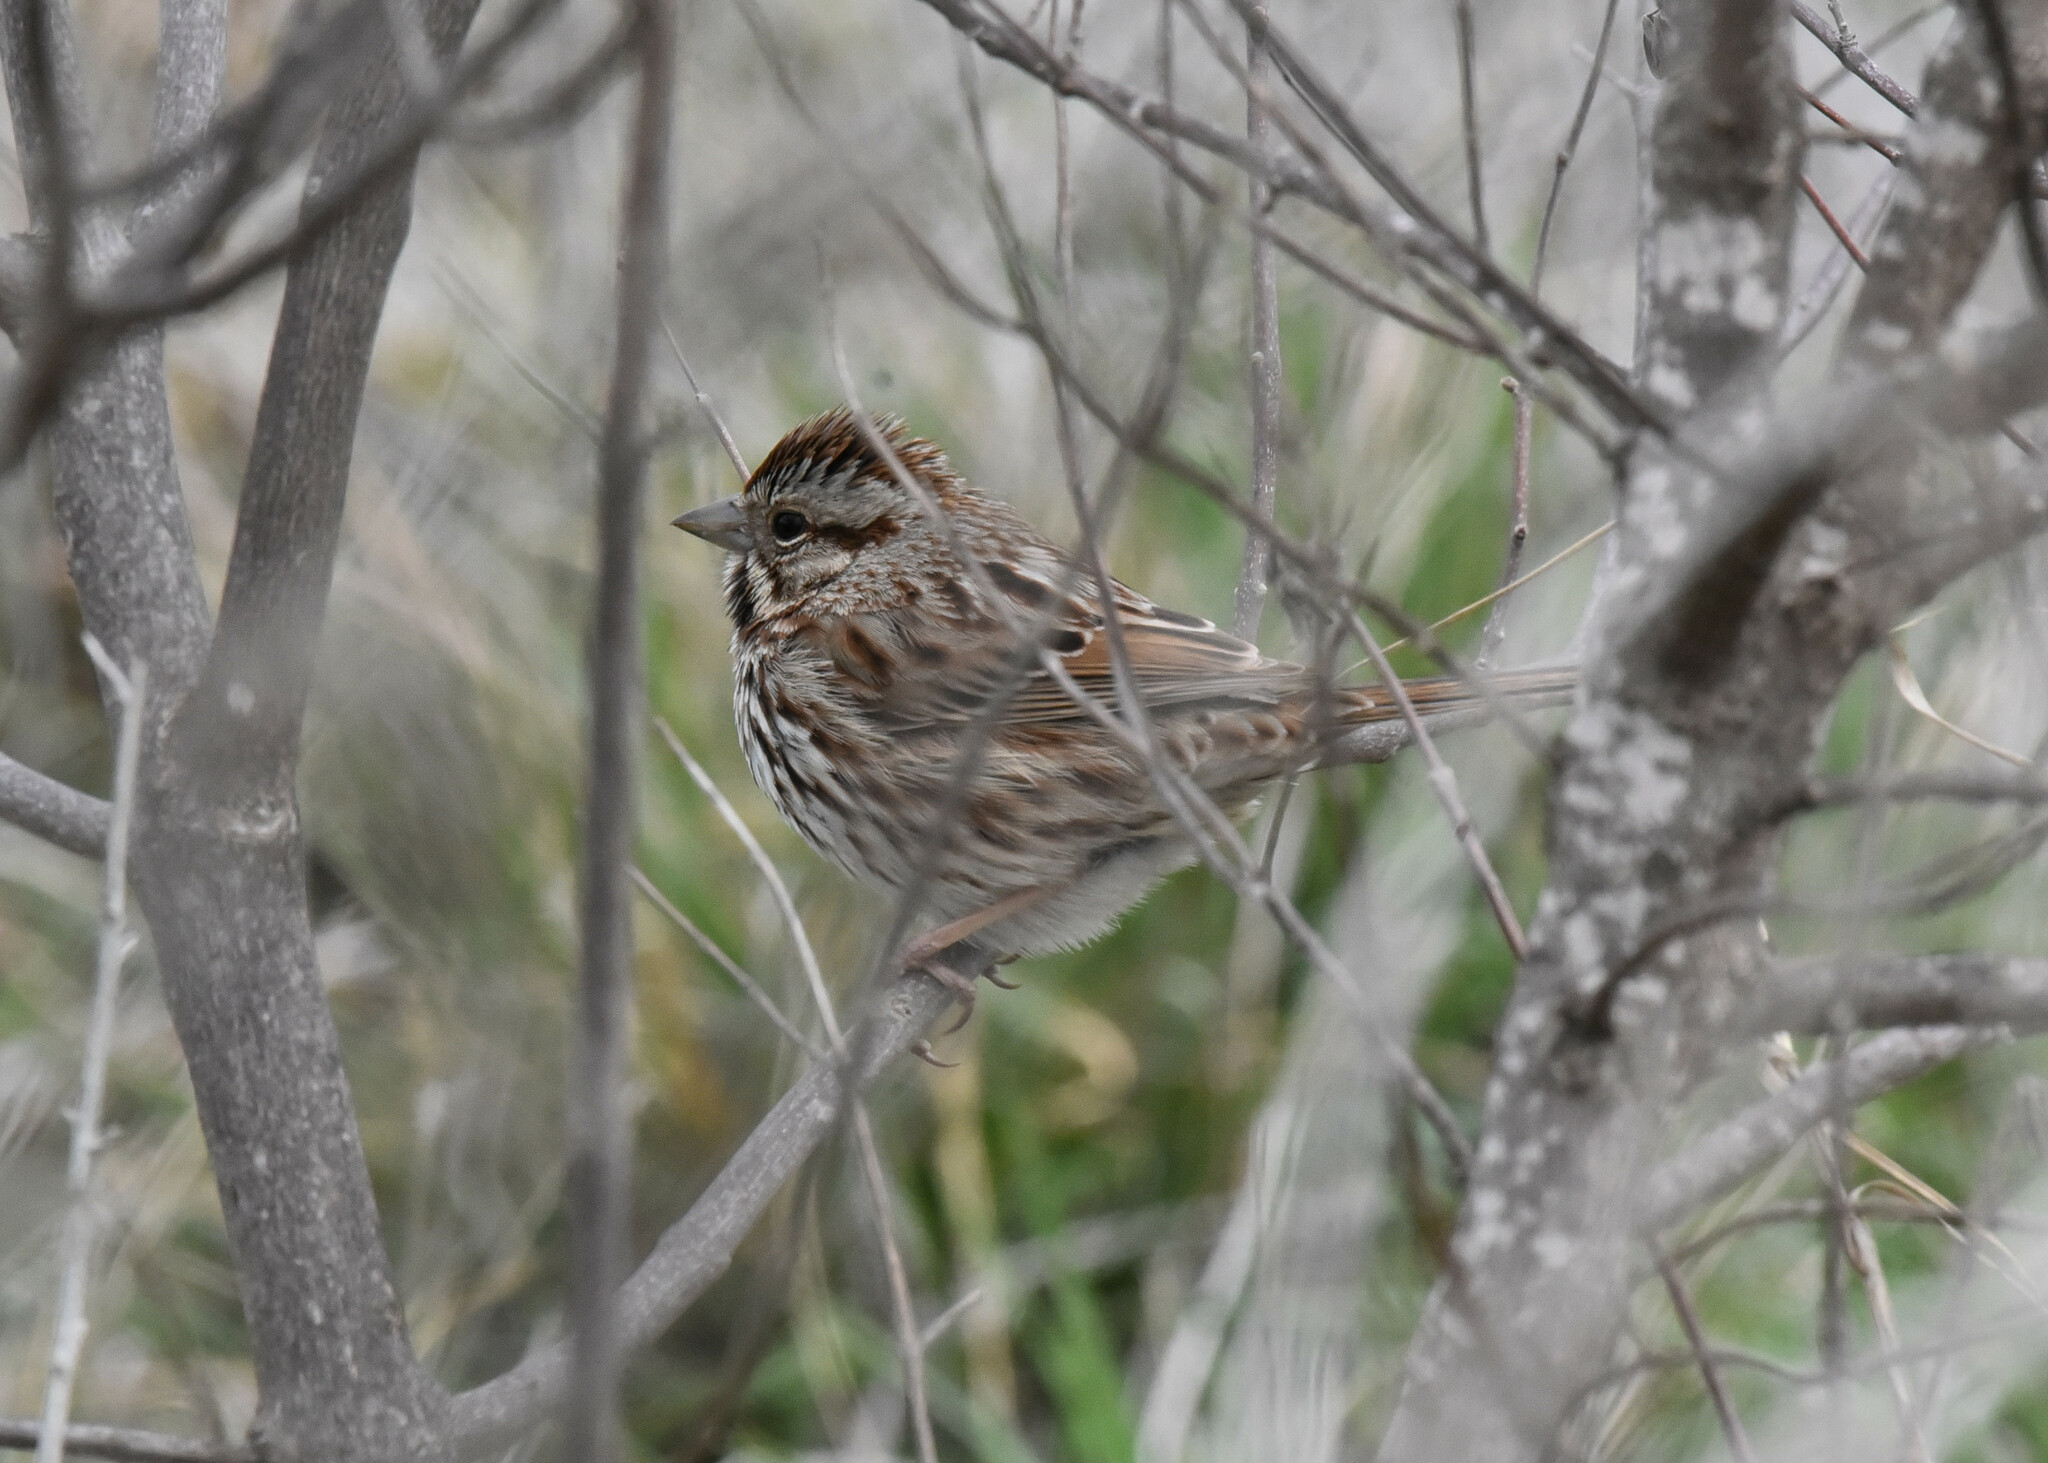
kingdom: Animalia
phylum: Chordata
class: Aves
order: Passeriformes
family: Passerellidae
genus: Melospiza
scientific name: Melospiza melodia
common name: Song sparrow
